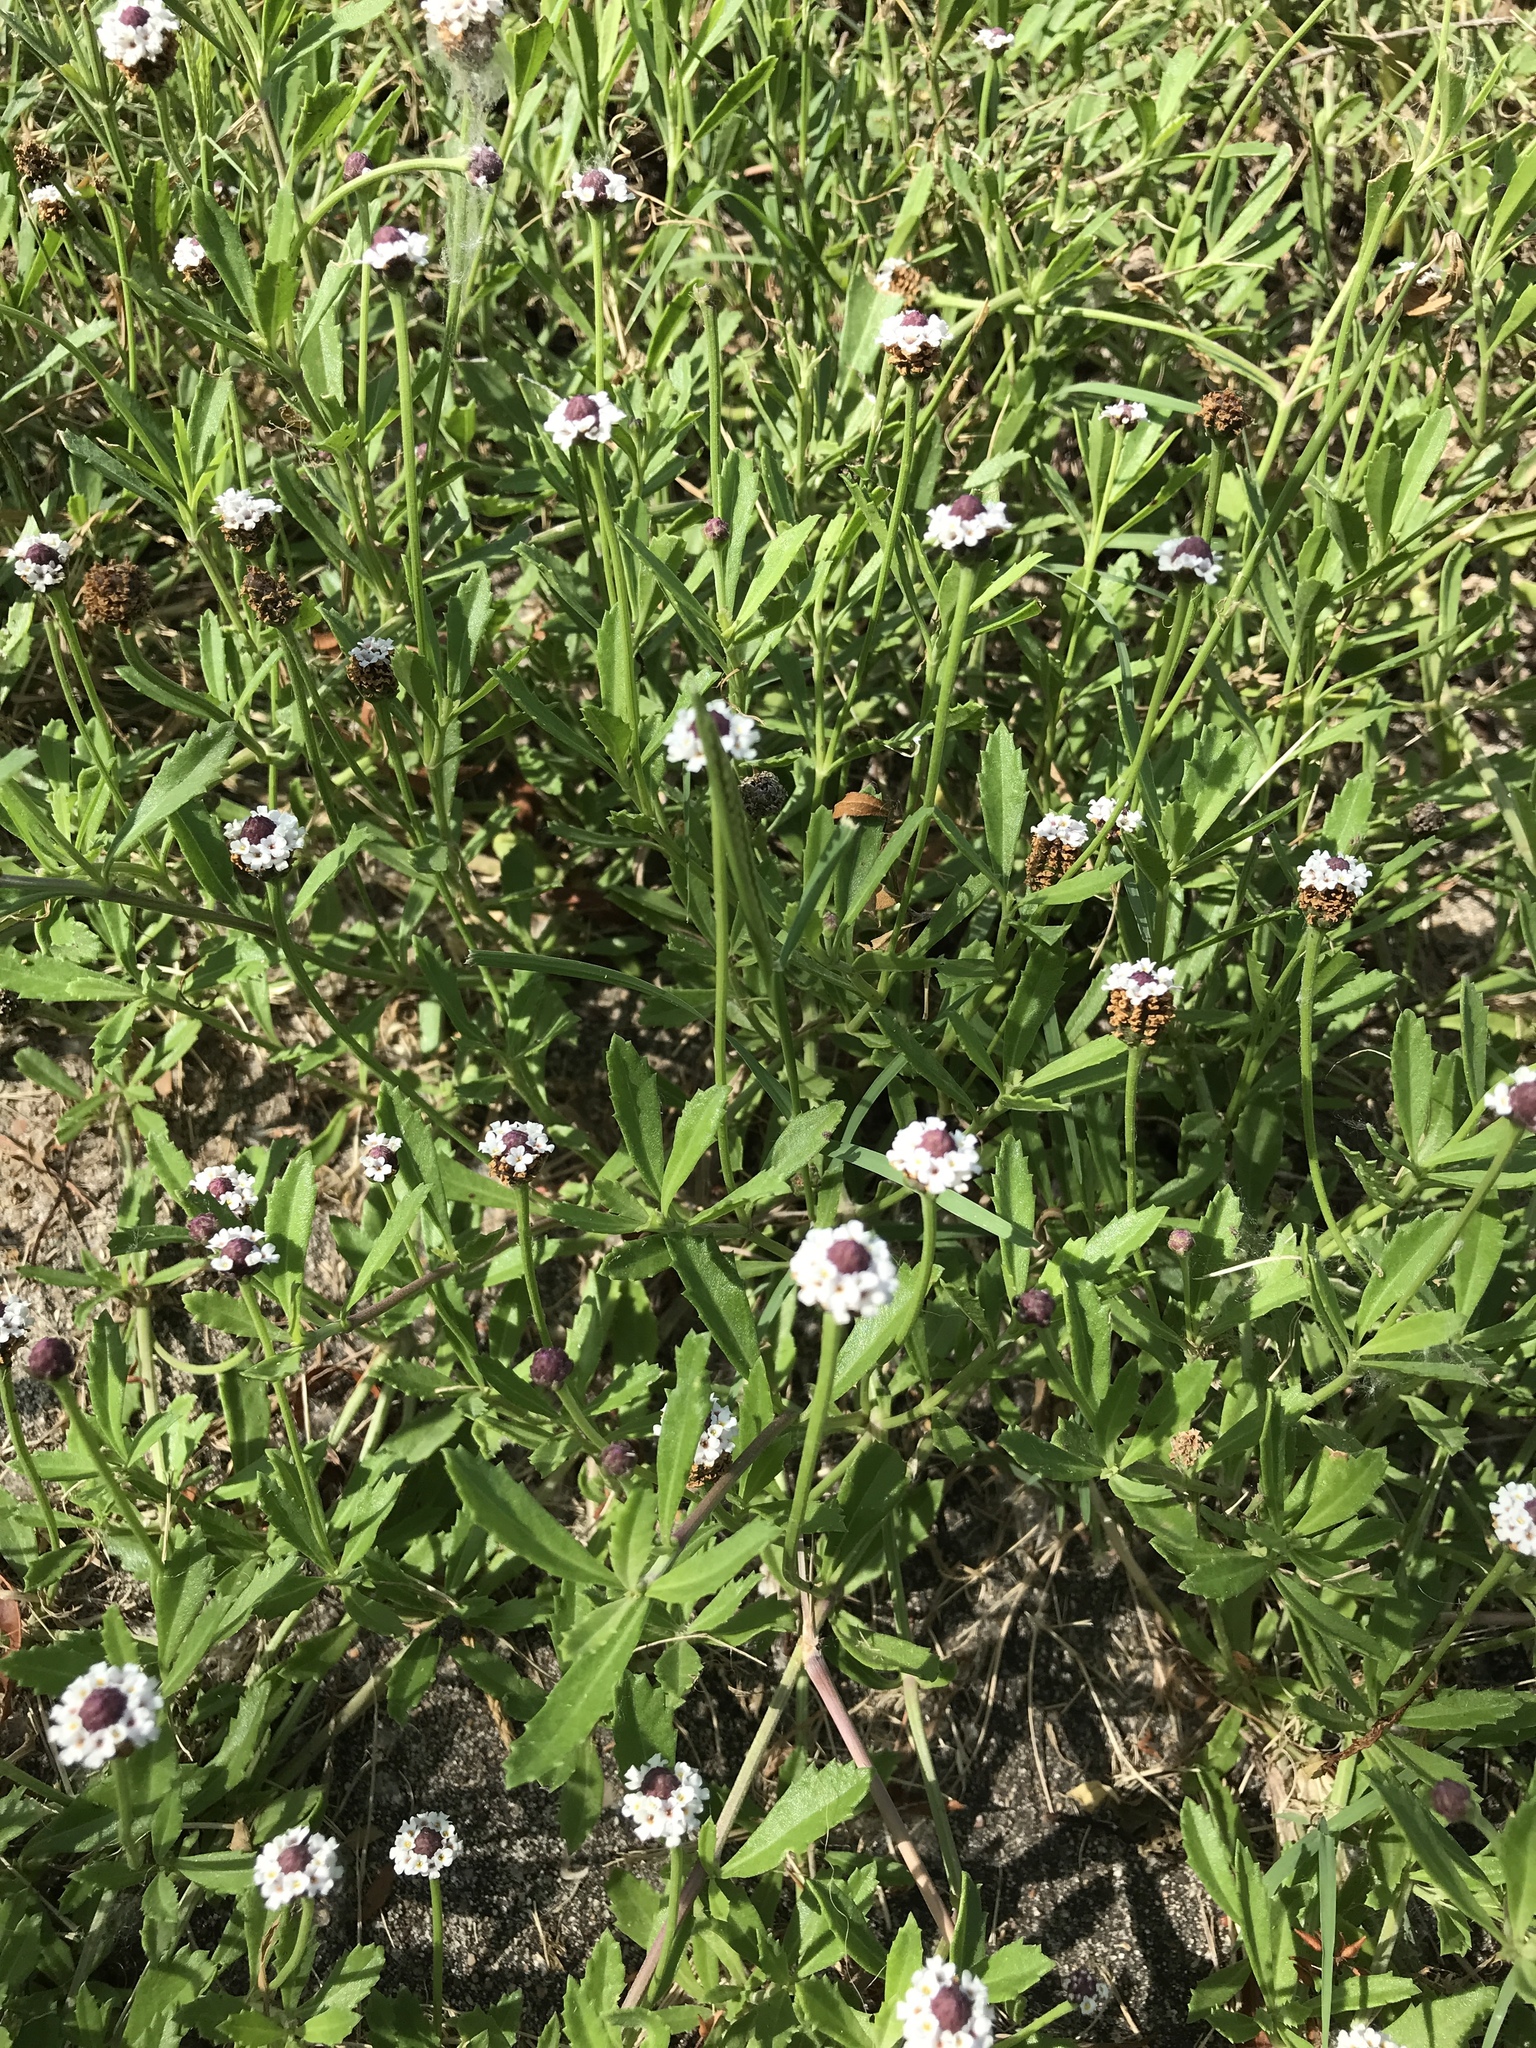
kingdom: Plantae
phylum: Tracheophyta
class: Magnoliopsida
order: Lamiales
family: Verbenaceae
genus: Phyla
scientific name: Phyla nodiflora
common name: Frogfruit
